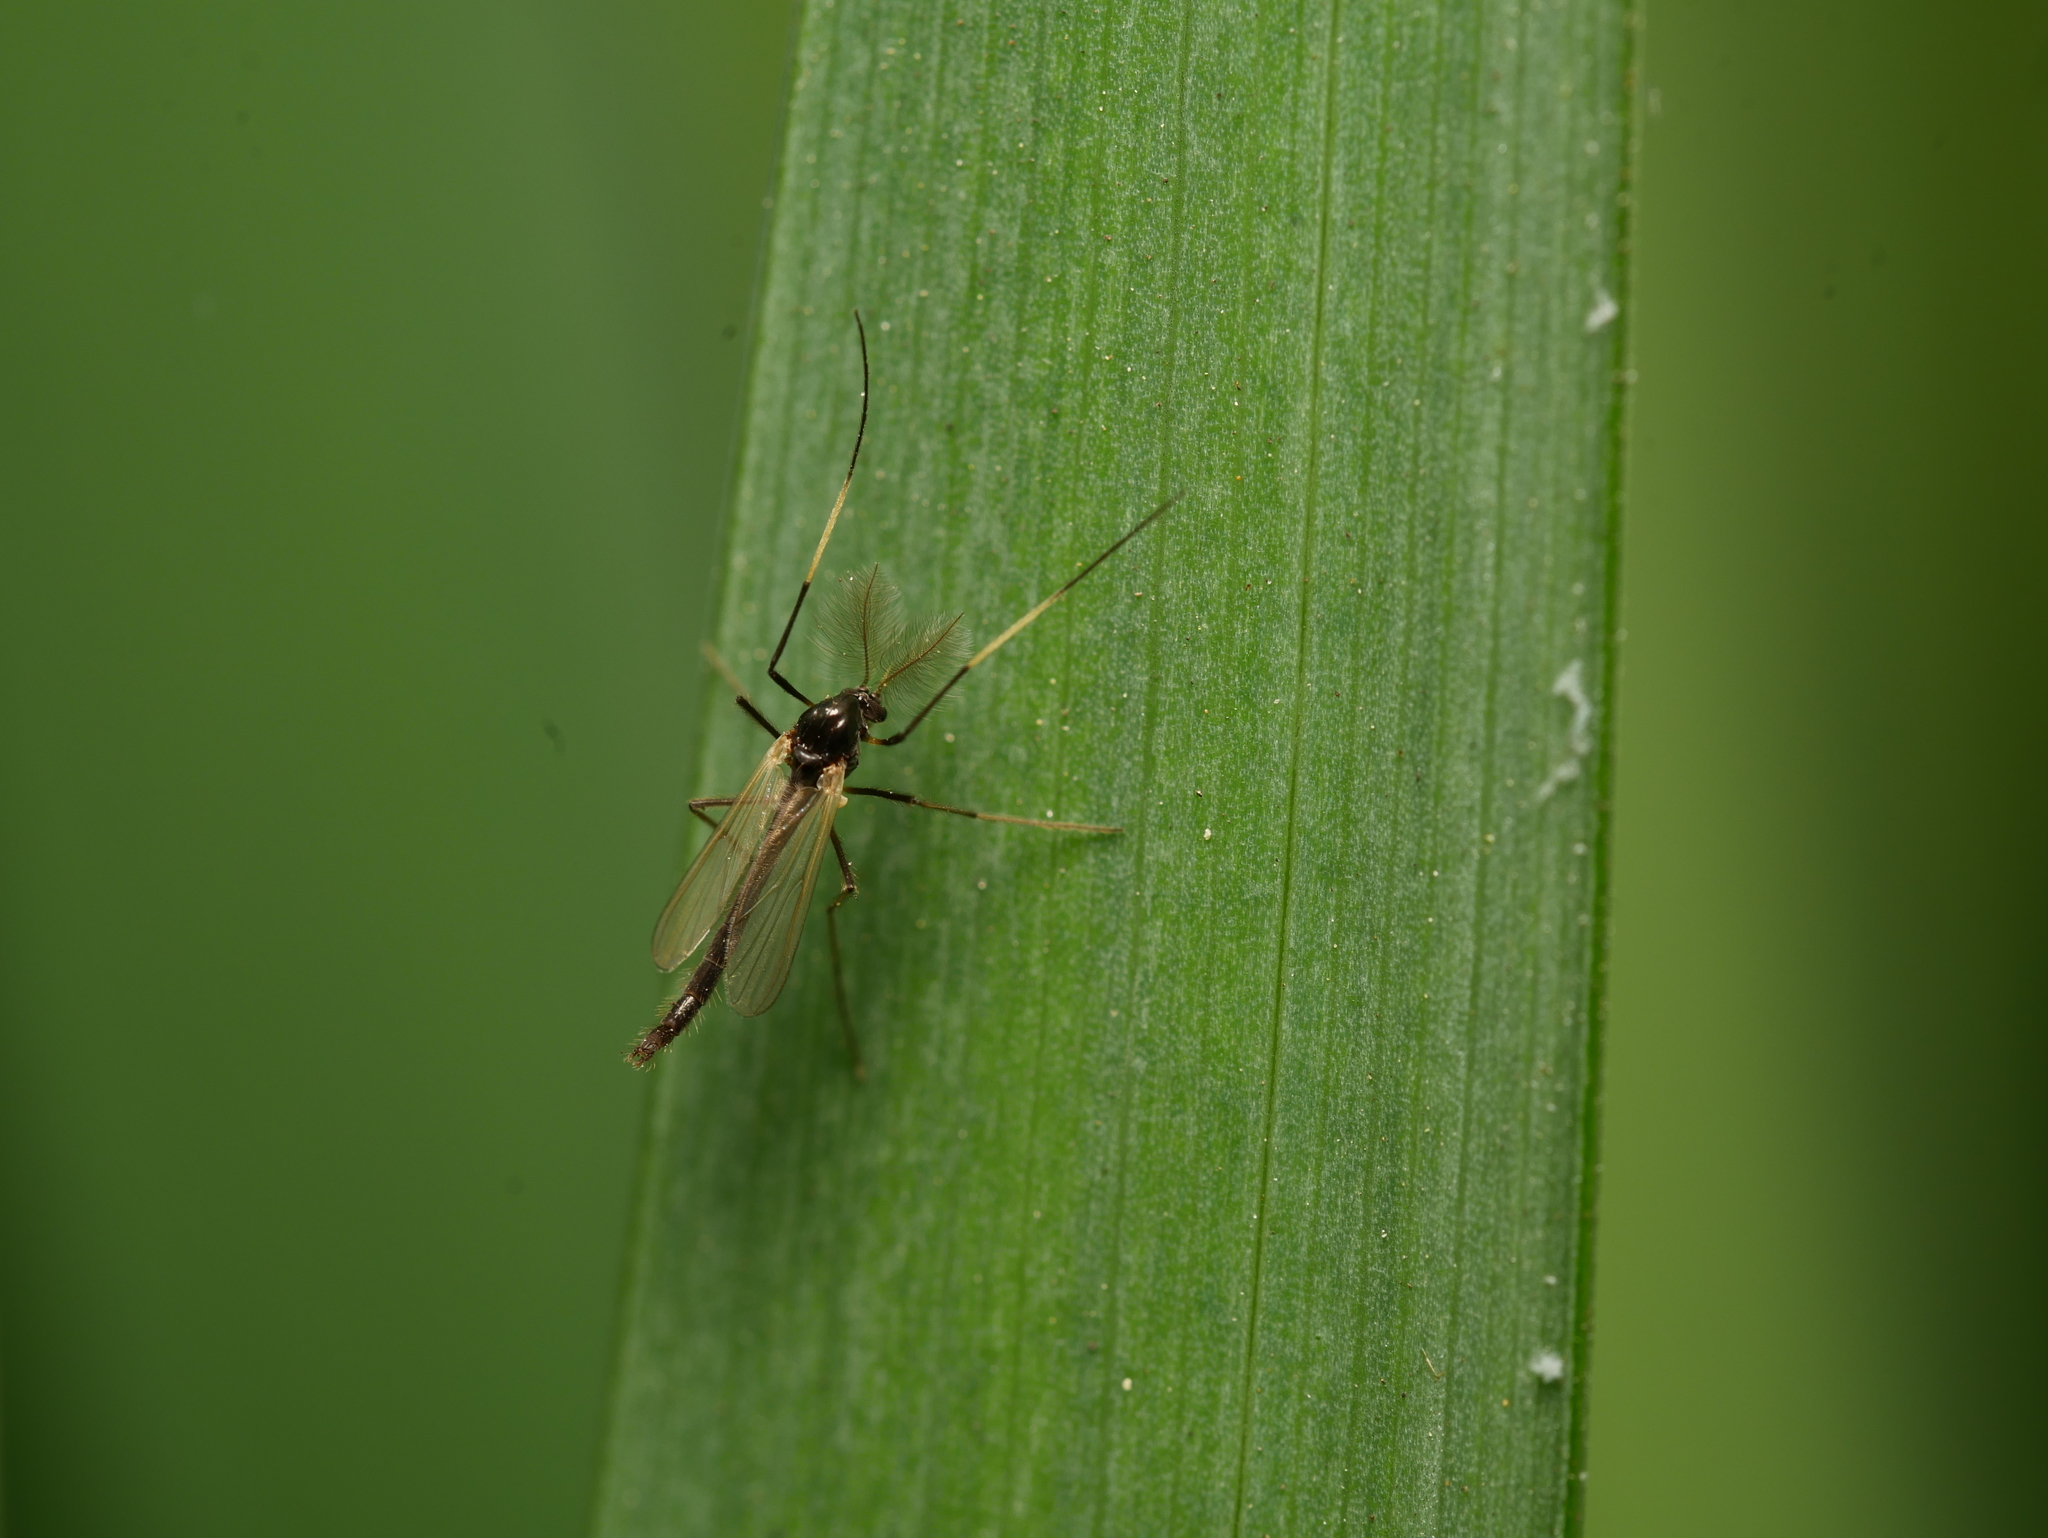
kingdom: Animalia
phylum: Arthropoda
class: Insecta
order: Diptera
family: Chironomidae
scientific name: Chironomidae
